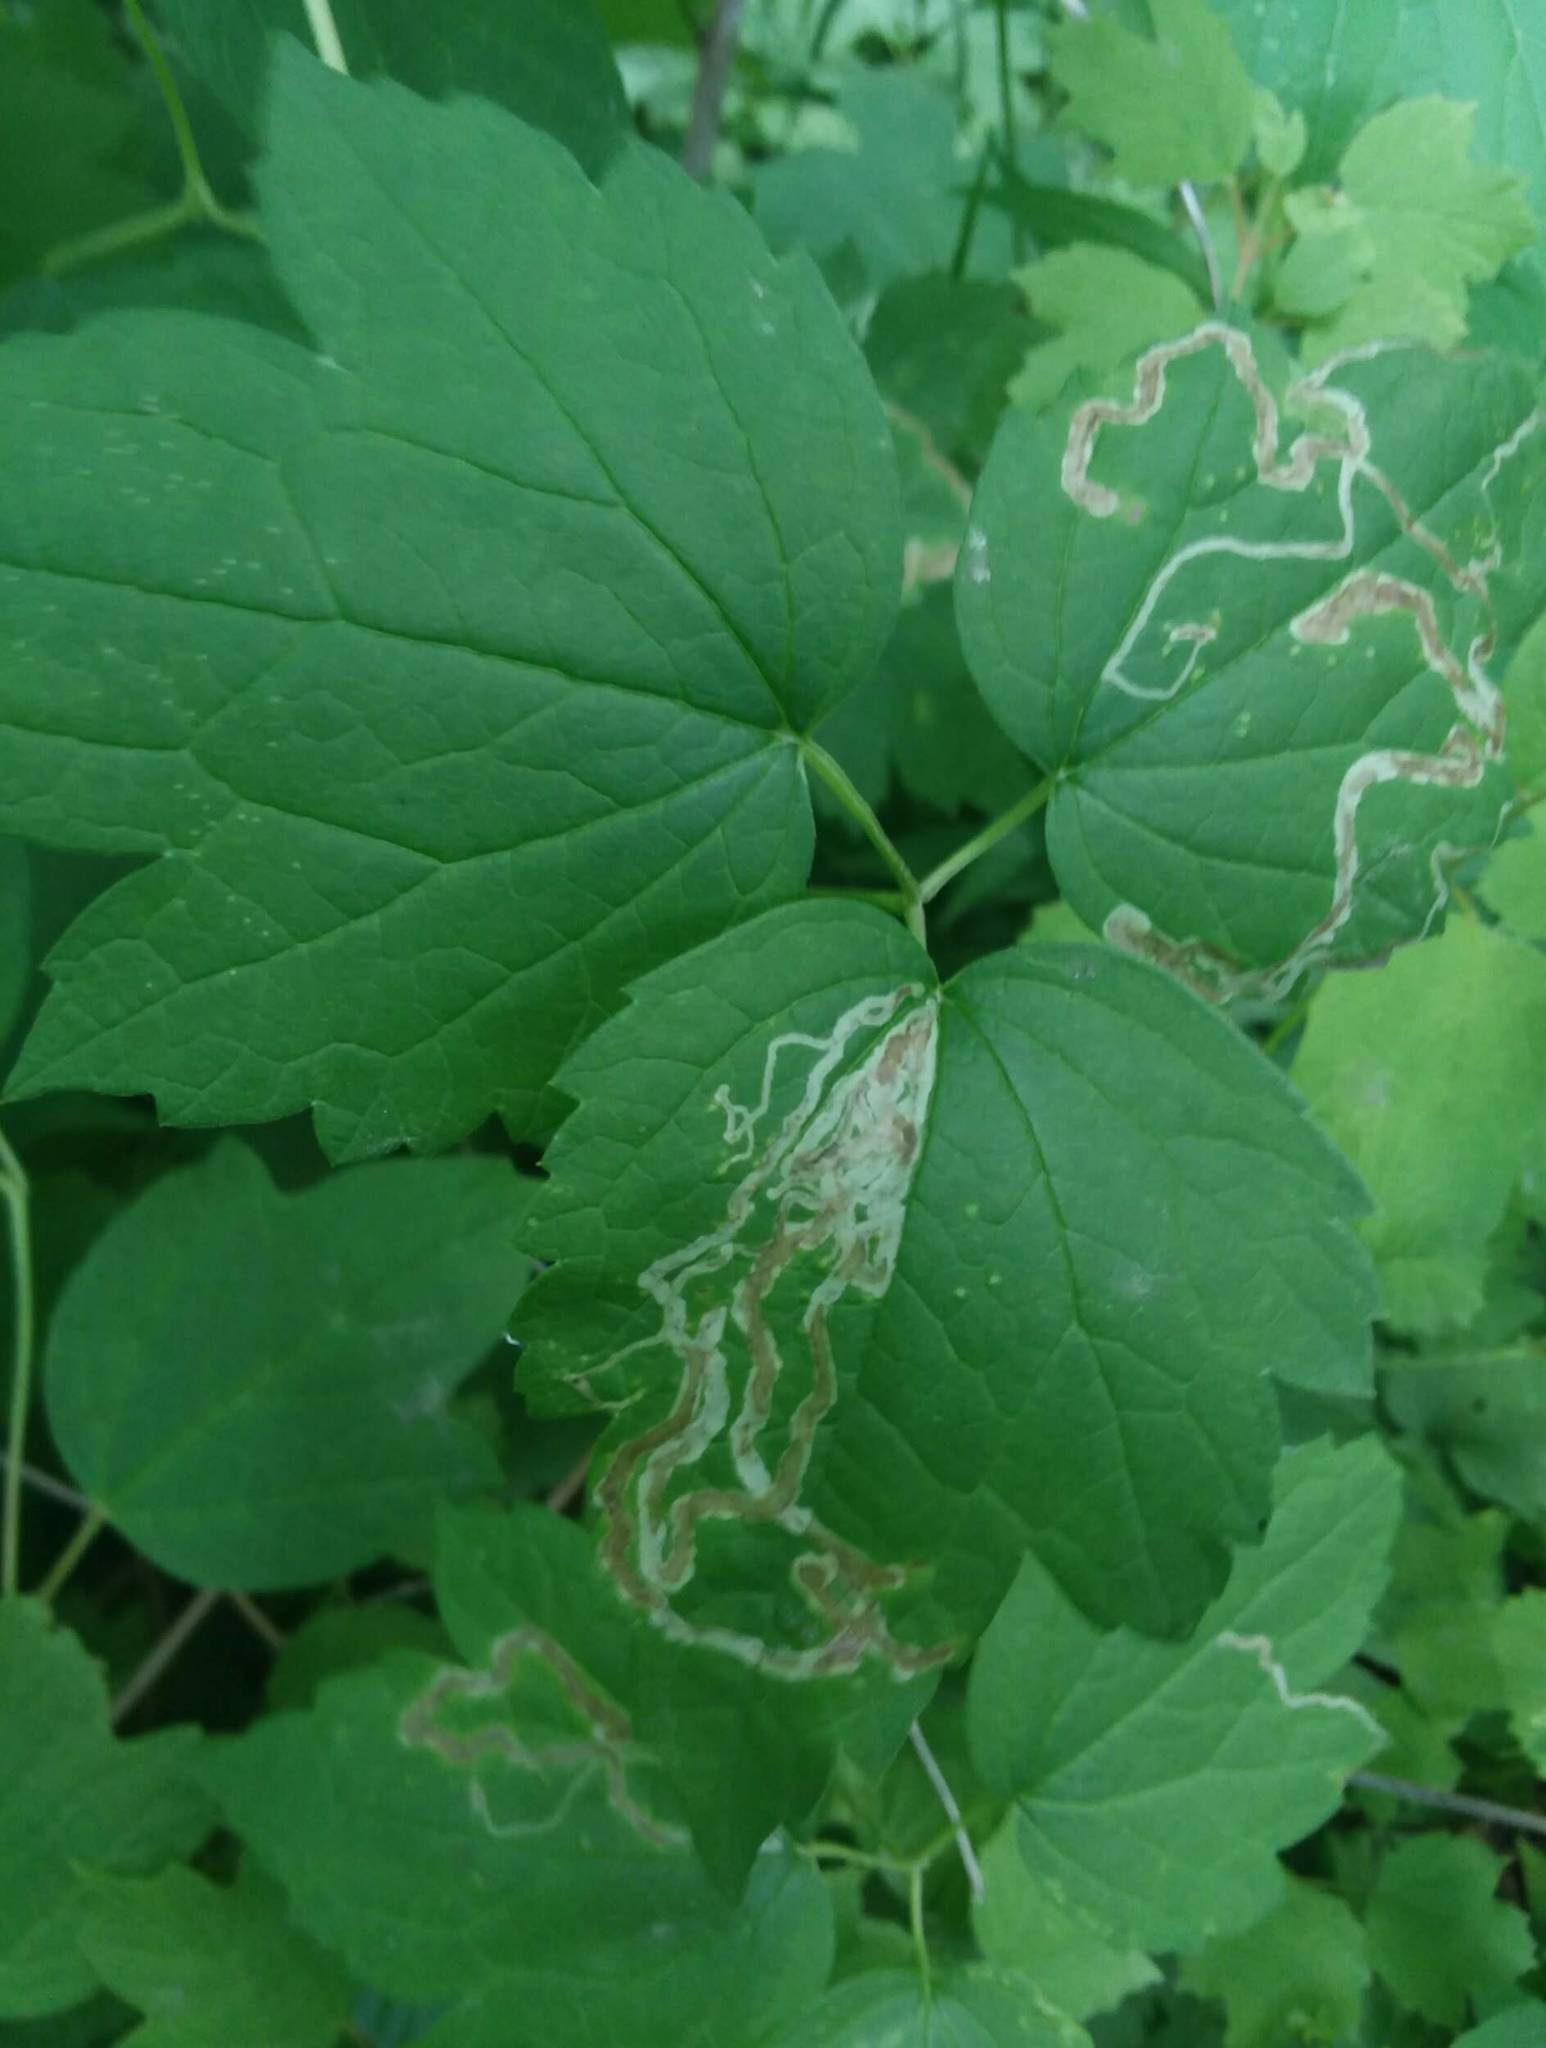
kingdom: Animalia
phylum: Arthropoda
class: Insecta
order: Diptera
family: Agromyzidae
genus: Phytomyza
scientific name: Phytomyza loewii
